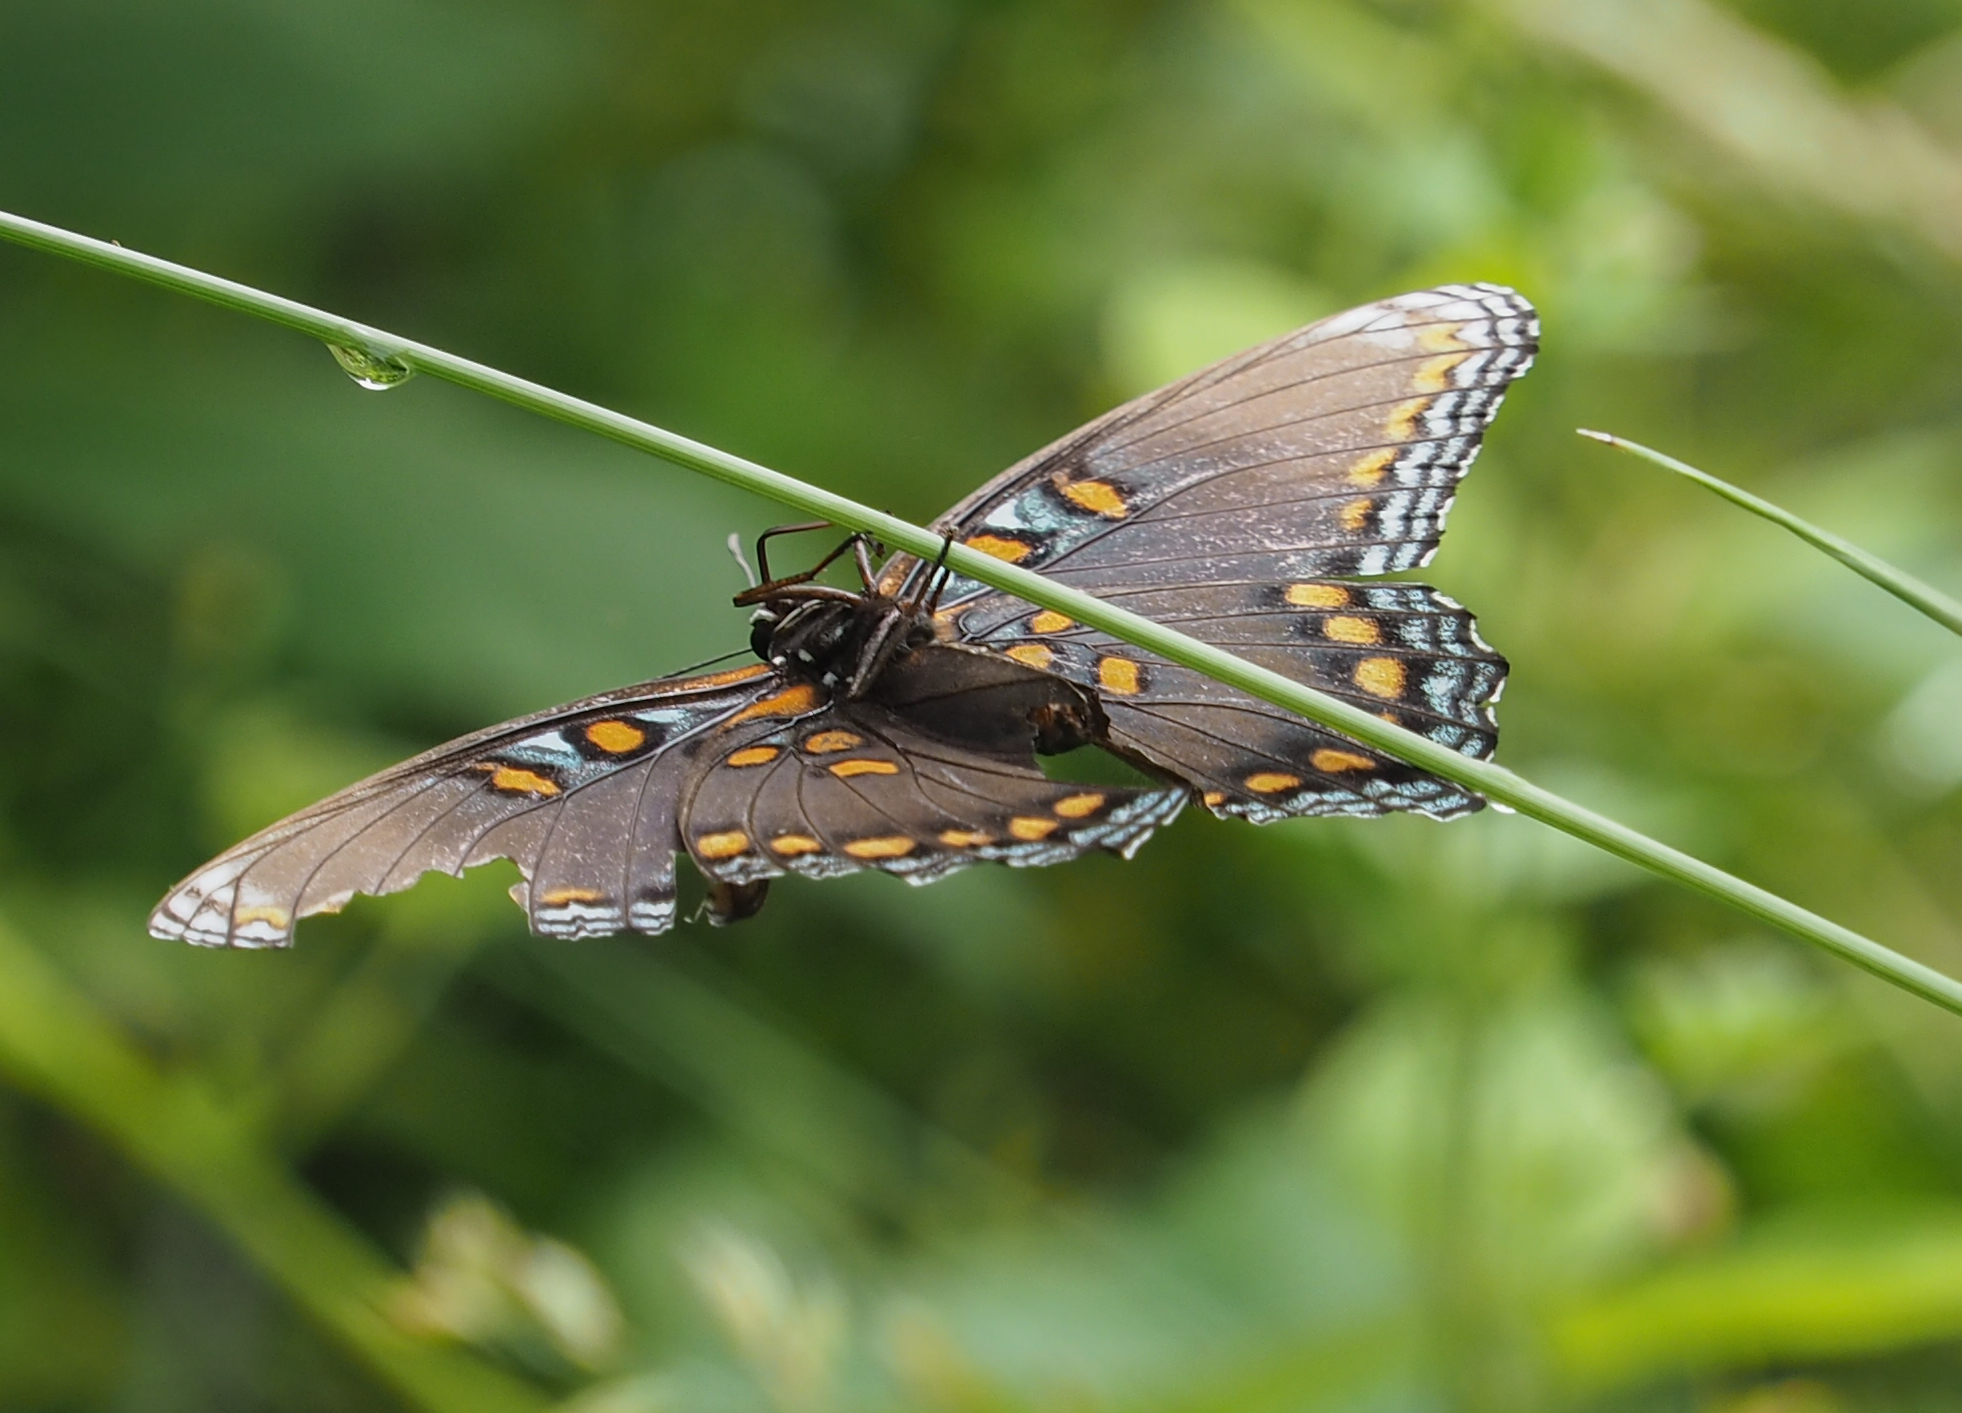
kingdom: Animalia
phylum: Arthropoda
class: Insecta
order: Lepidoptera
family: Nymphalidae
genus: Limenitis
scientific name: Limenitis astyanax
